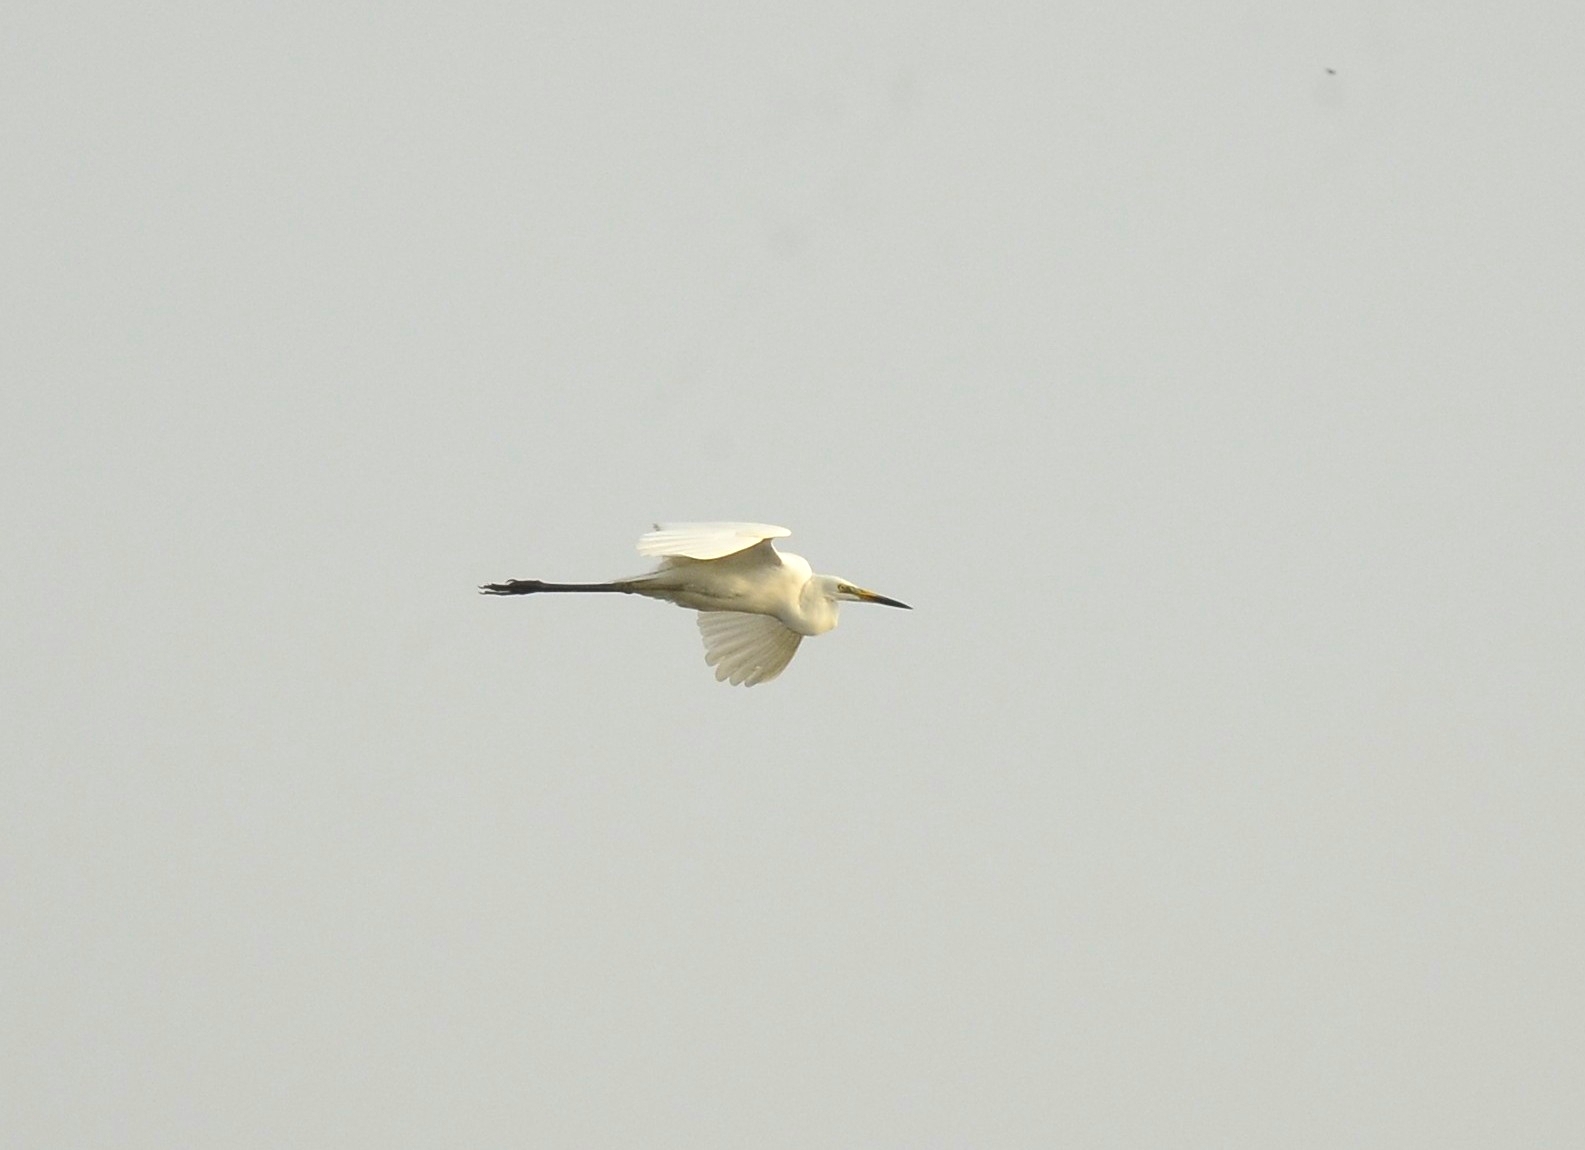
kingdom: Animalia
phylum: Chordata
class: Aves
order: Pelecaniformes
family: Ardeidae
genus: Egretta
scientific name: Egretta garzetta
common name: Little egret
